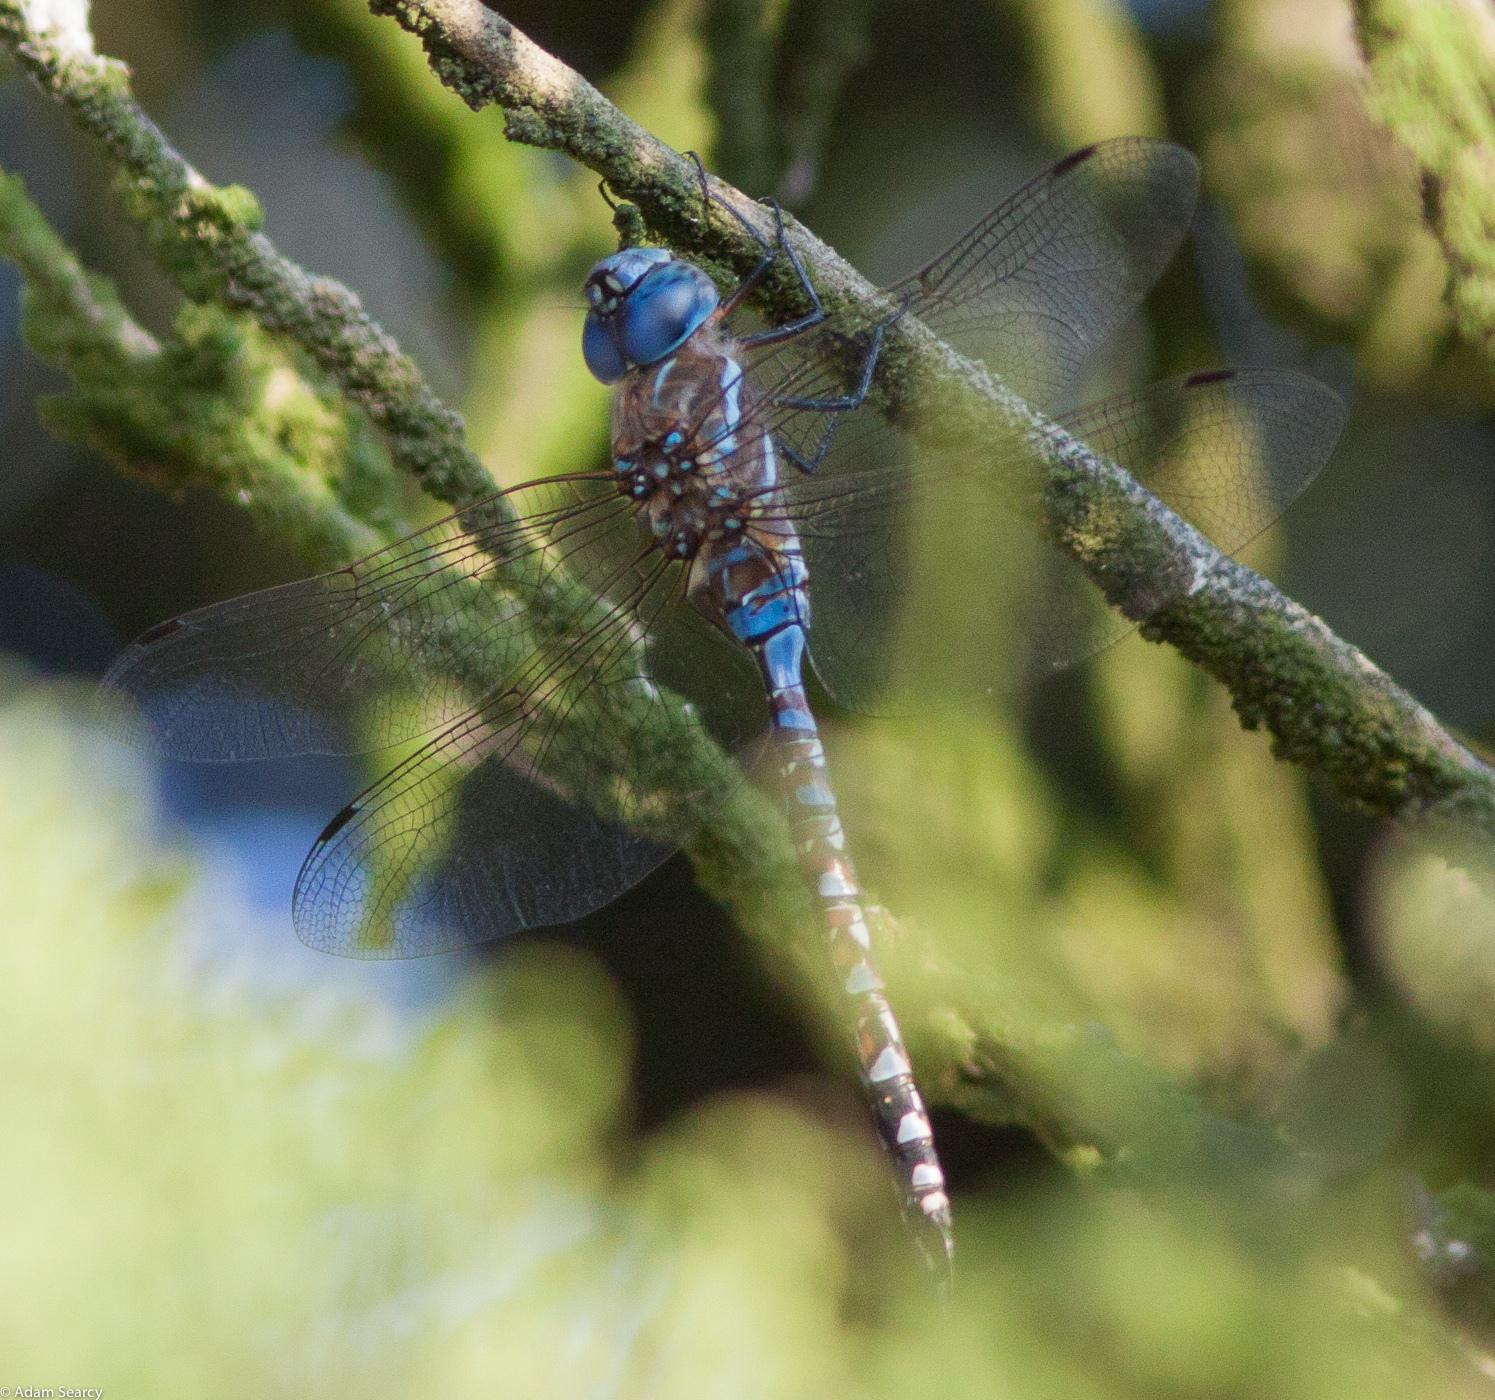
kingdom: Animalia
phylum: Arthropoda
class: Insecta
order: Odonata
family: Aeshnidae
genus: Rhionaeschna
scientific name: Rhionaeschna multicolor
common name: Blue-eyed darner
